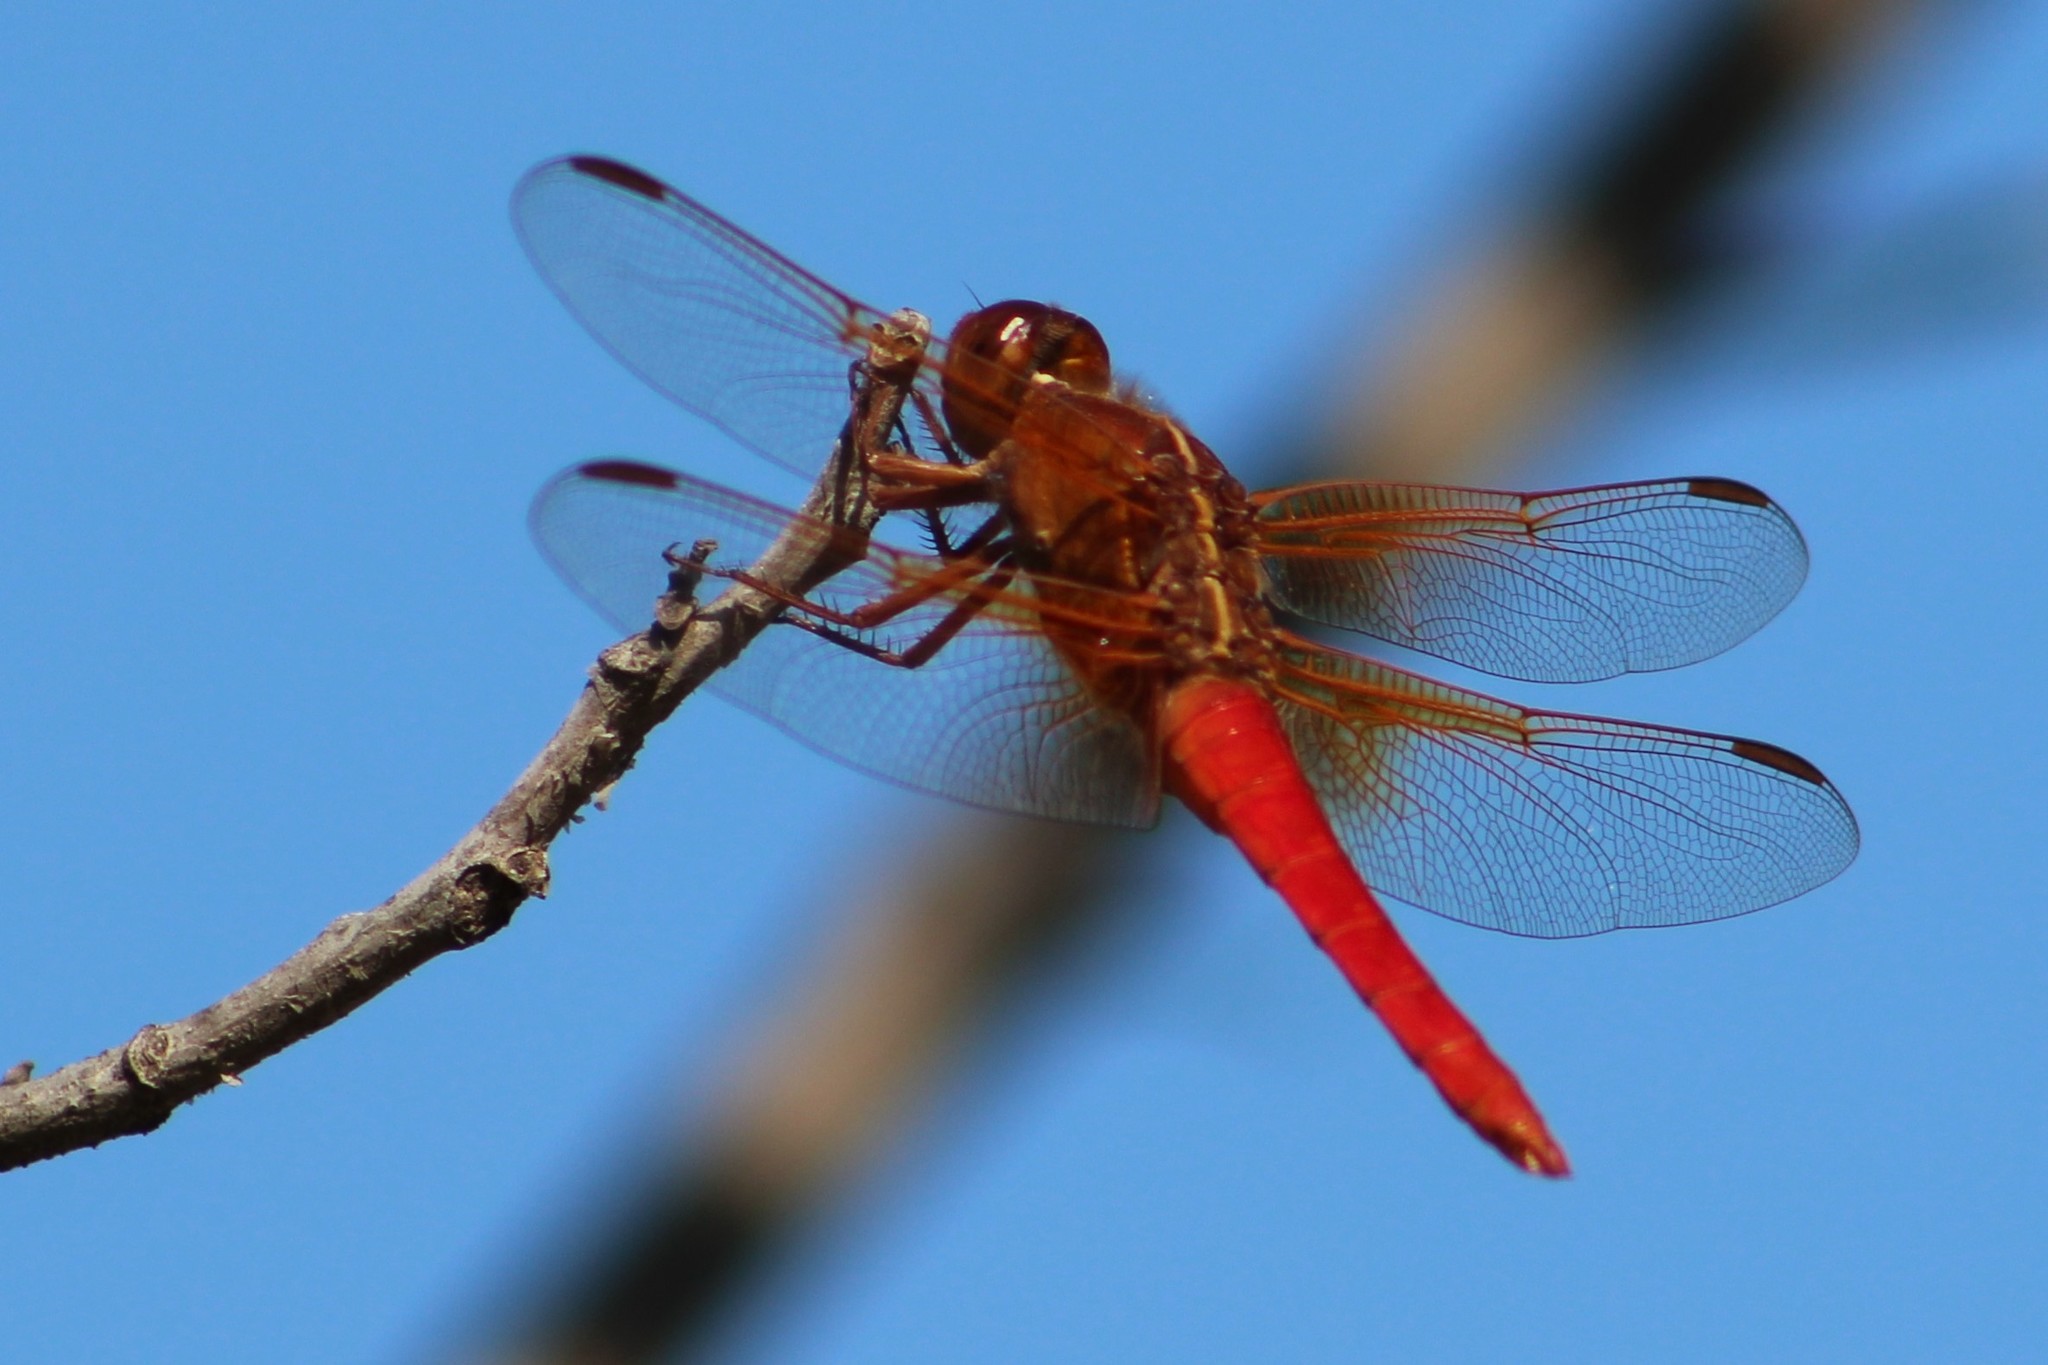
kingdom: Animalia
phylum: Arthropoda
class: Insecta
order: Odonata
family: Libellulidae
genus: Libellula
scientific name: Libellula croceipennis
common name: Neon skimmer
